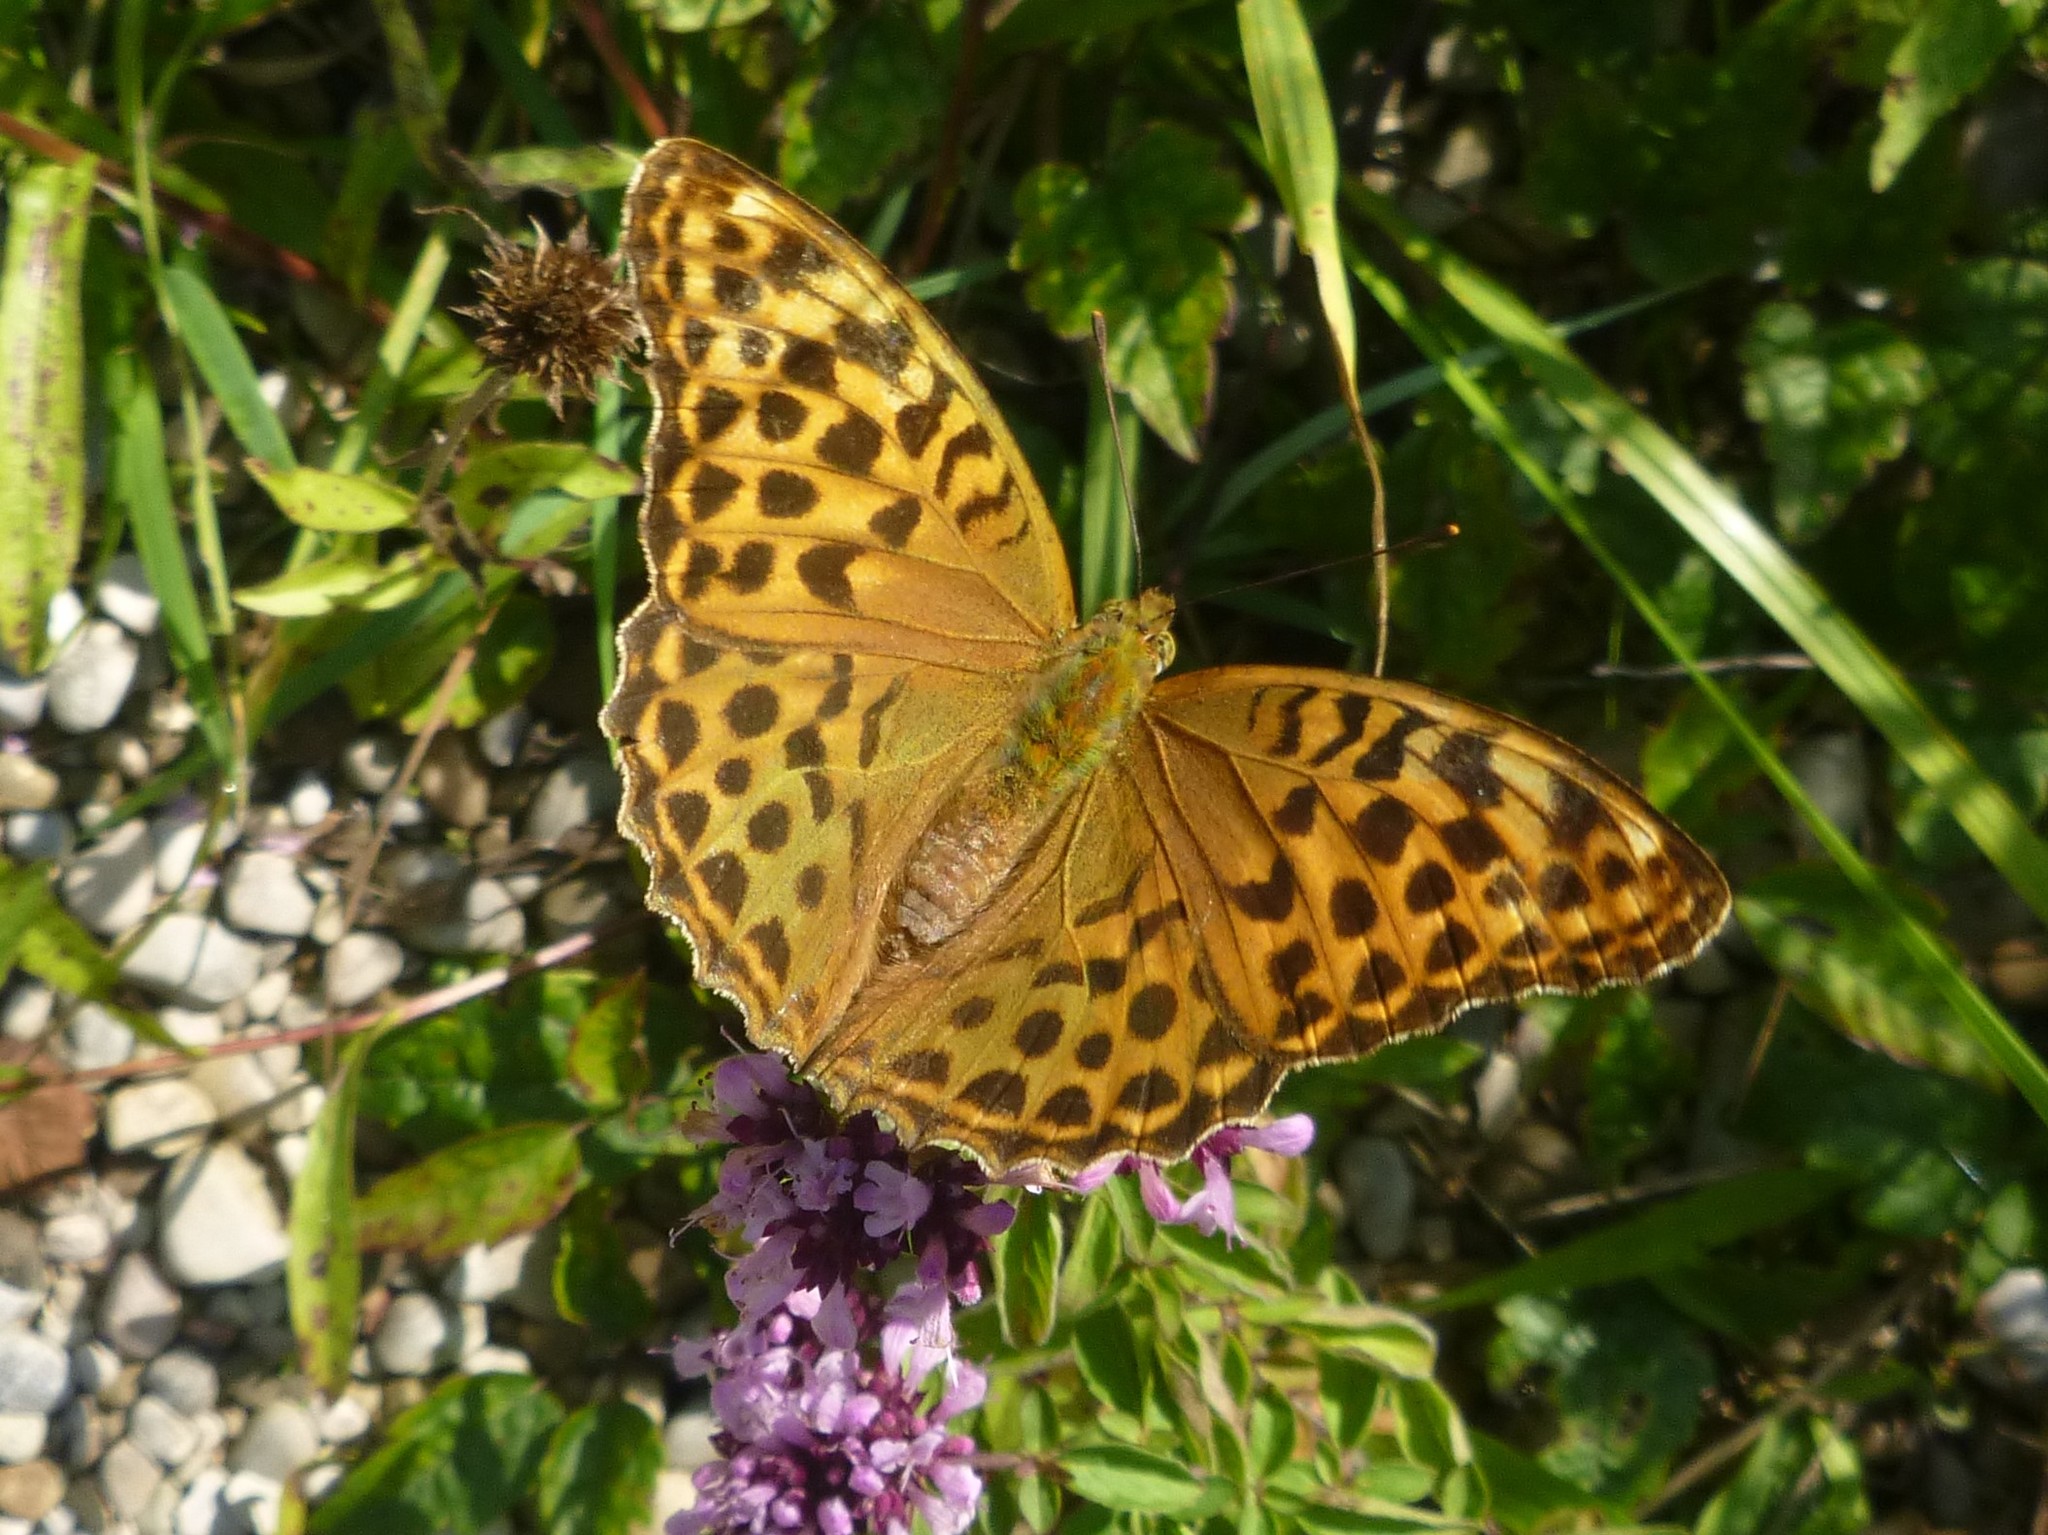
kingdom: Animalia
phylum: Arthropoda
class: Insecta
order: Lepidoptera
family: Nymphalidae
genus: Argynnis
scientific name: Argynnis paphia
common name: Silver-washed fritillary
